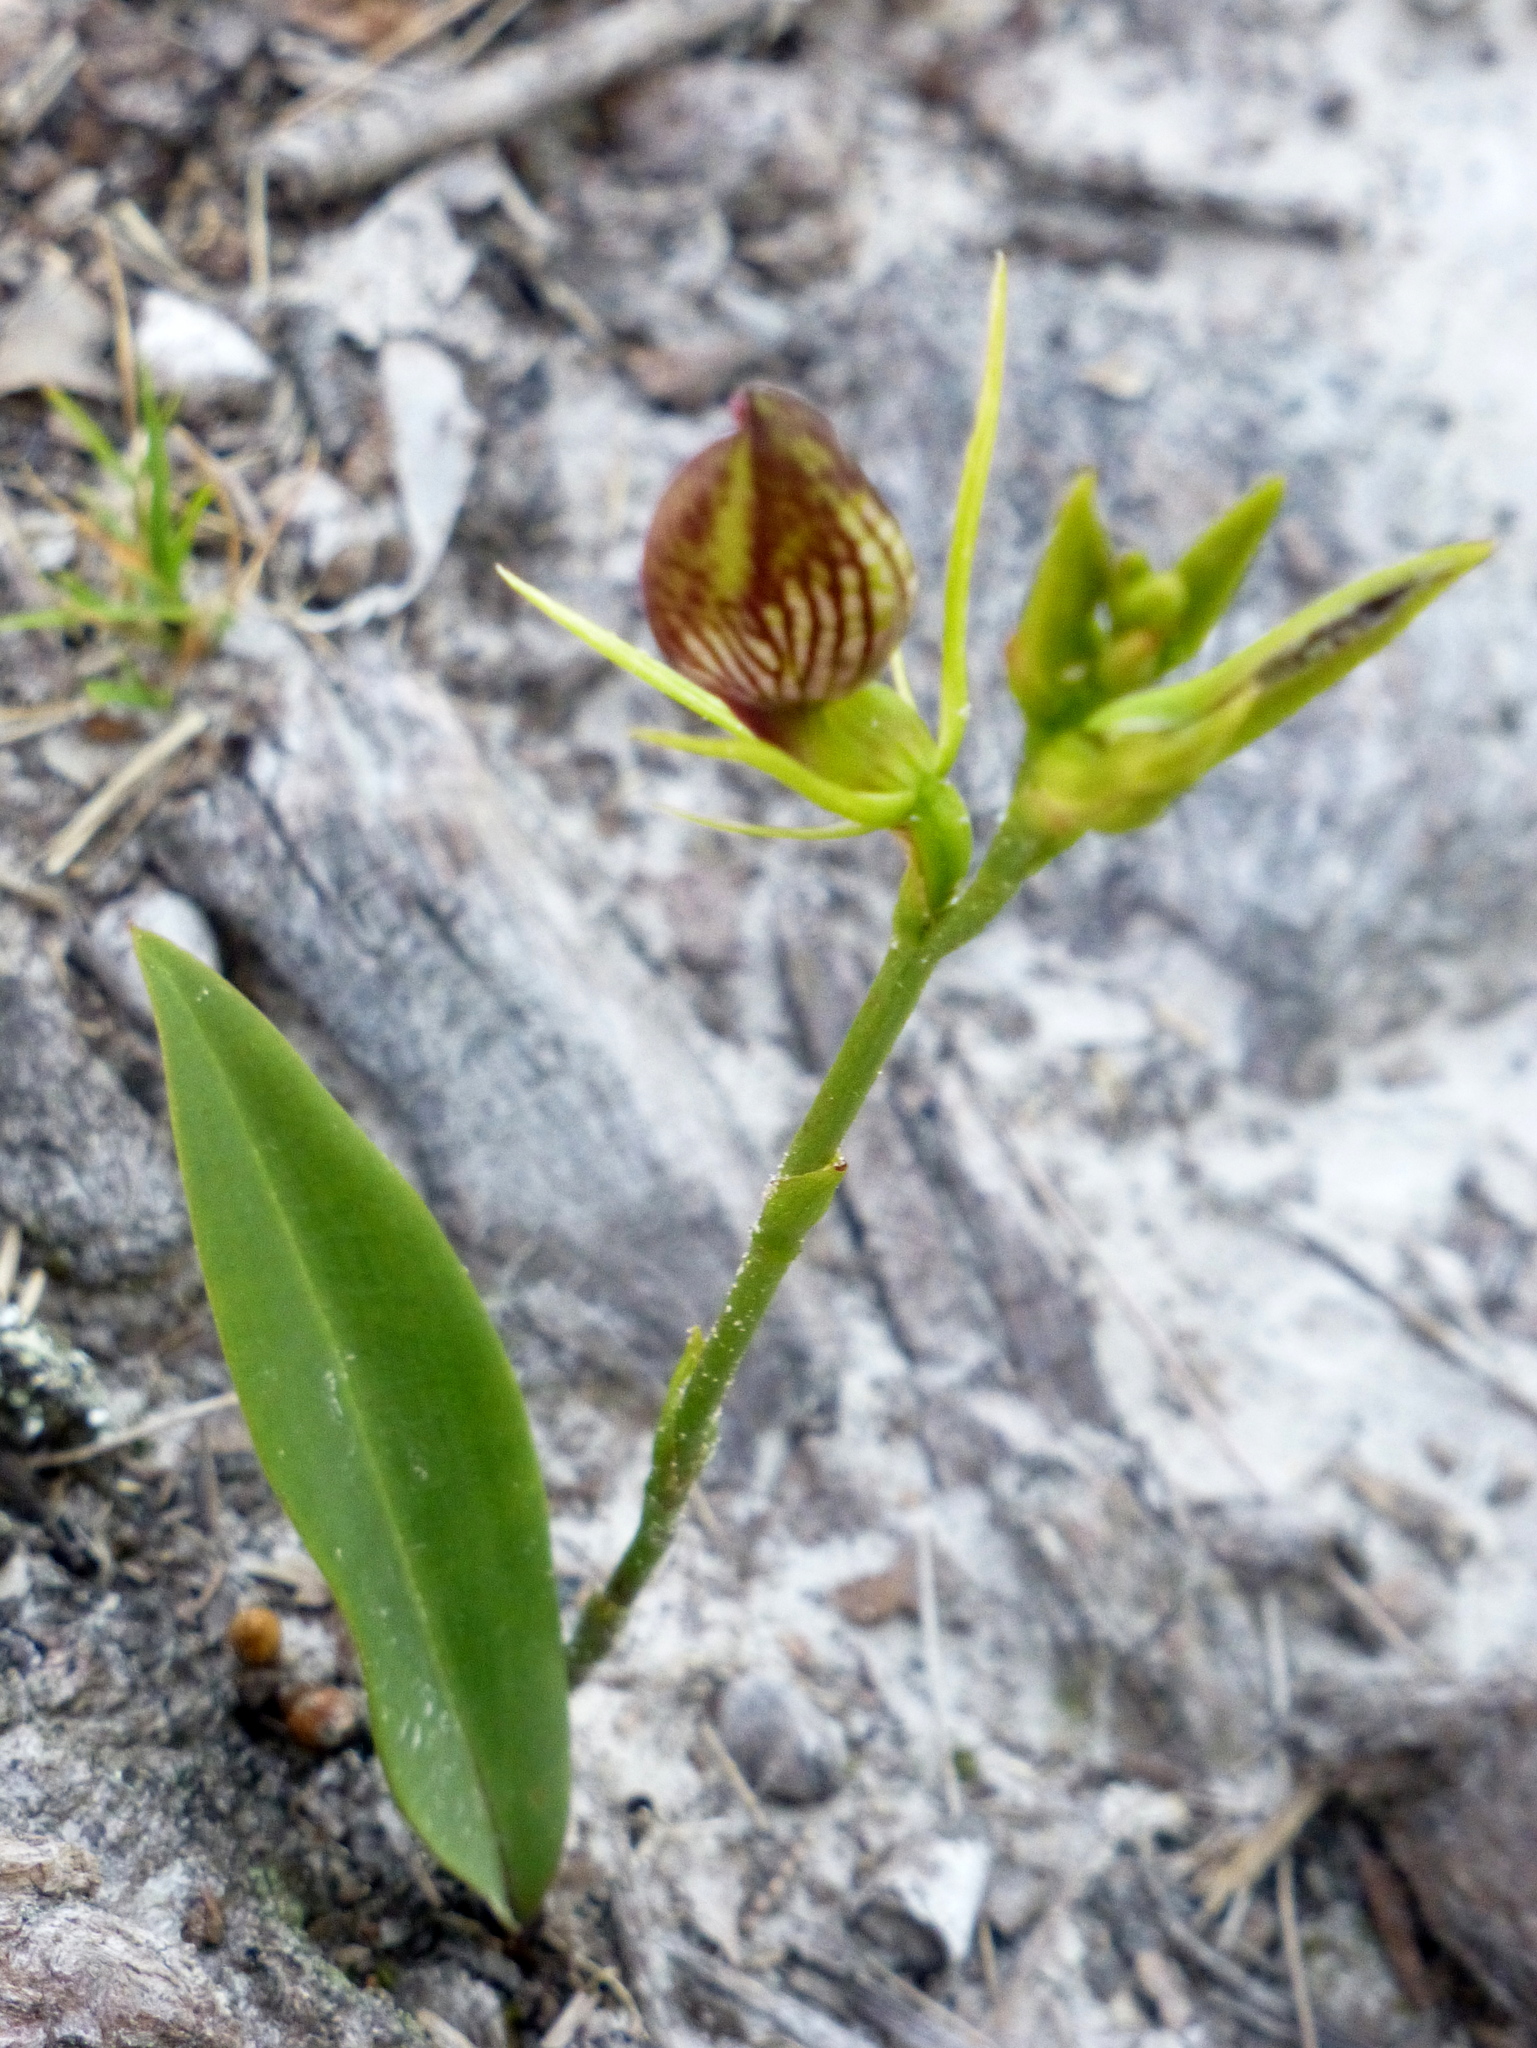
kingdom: Plantae
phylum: Tracheophyta
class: Liliopsida
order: Asparagales
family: Orchidaceae
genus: Cryptostylis
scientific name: Cryptostylis erecta
